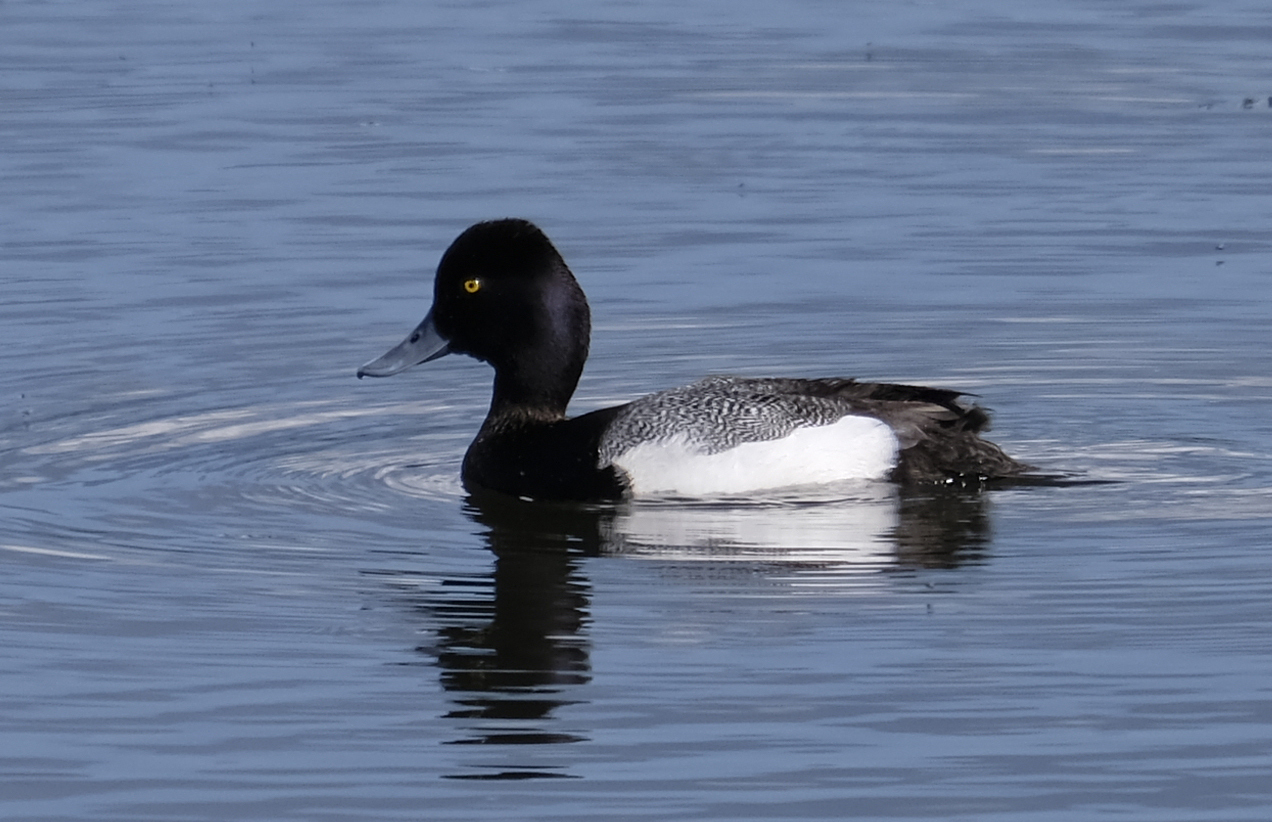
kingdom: Animalia
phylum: Chordata
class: Aves
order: Anseriformes
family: Anatidae
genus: Aythya
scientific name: Aythya affinis
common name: Lesser scaup
